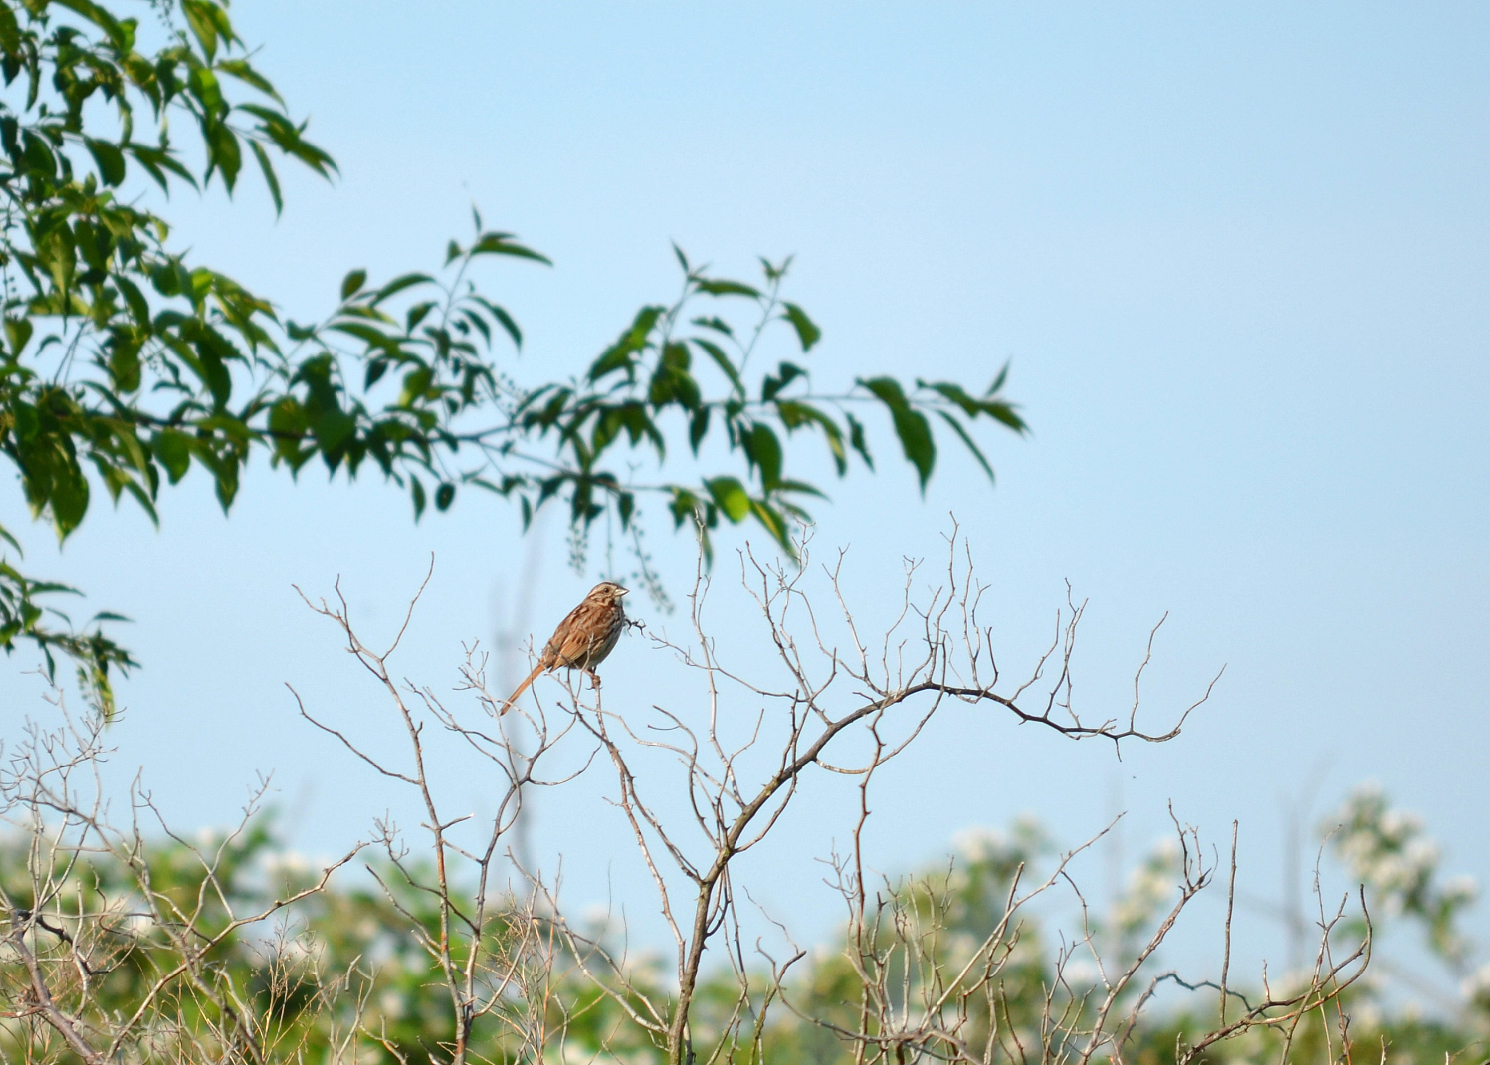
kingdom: Animalia
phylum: Chordata
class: Aves
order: Passeriformes
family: Passerellidae
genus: Melospiza
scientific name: Melospiza melodia
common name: Song sparrow
